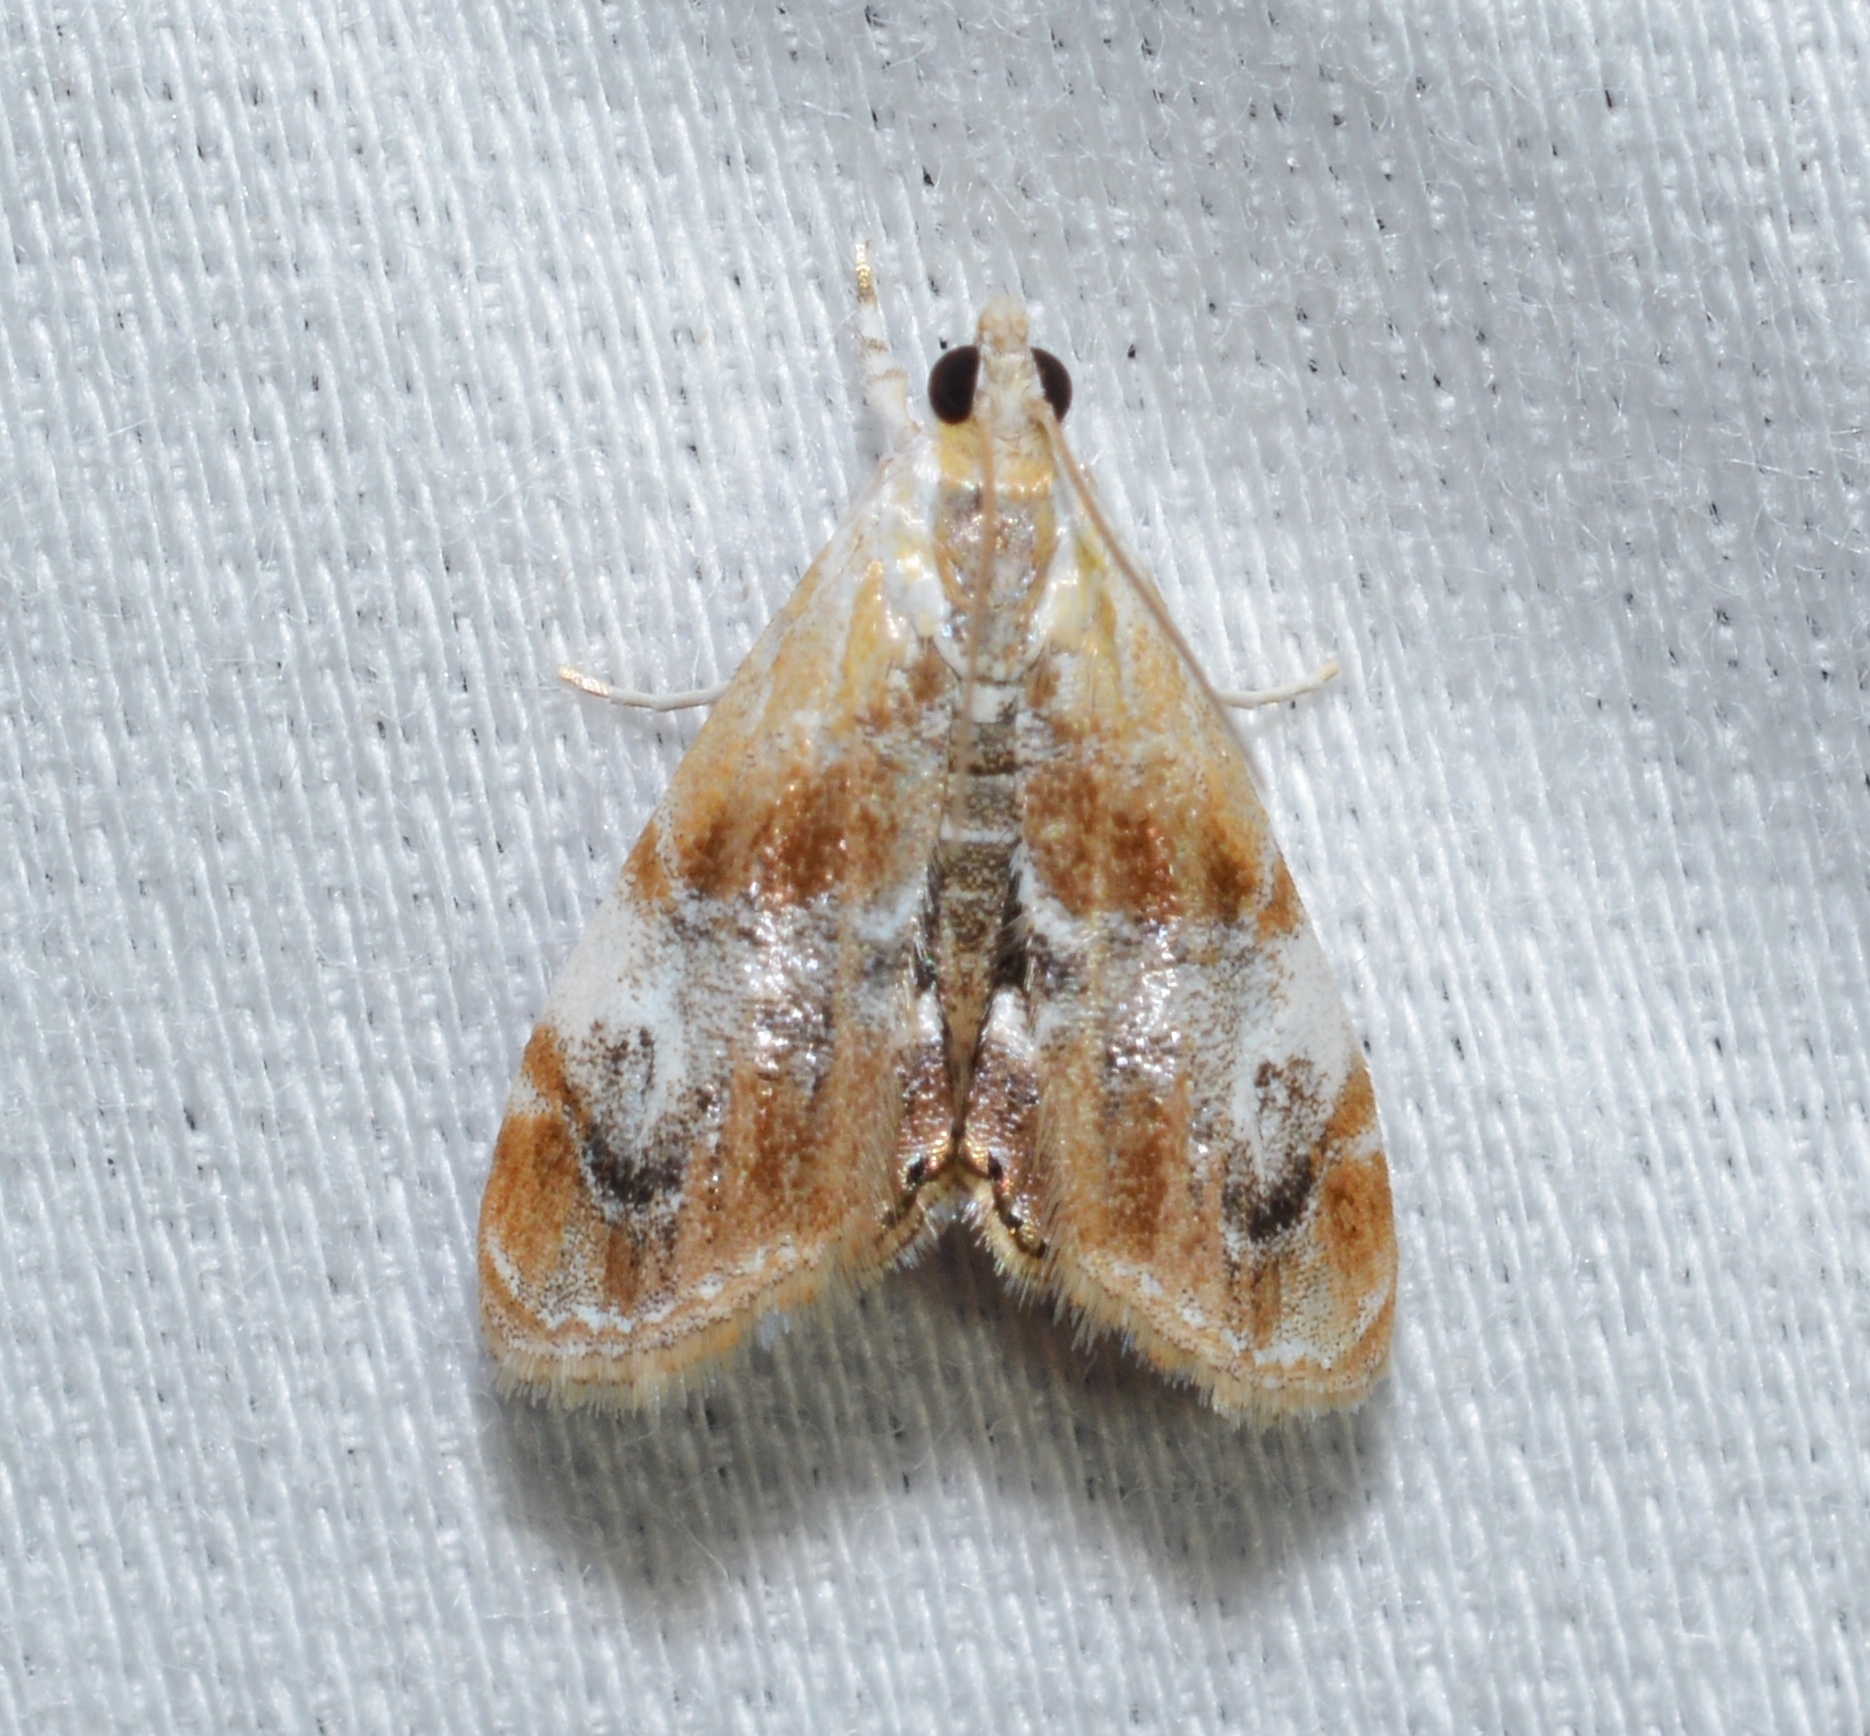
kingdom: Animalia
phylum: Arthropoda
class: Insecta
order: Lepidoptera
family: Crambidae
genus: Dicymolomia
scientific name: Dicymolomia julianalis
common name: Julia's dicymolomia moth
